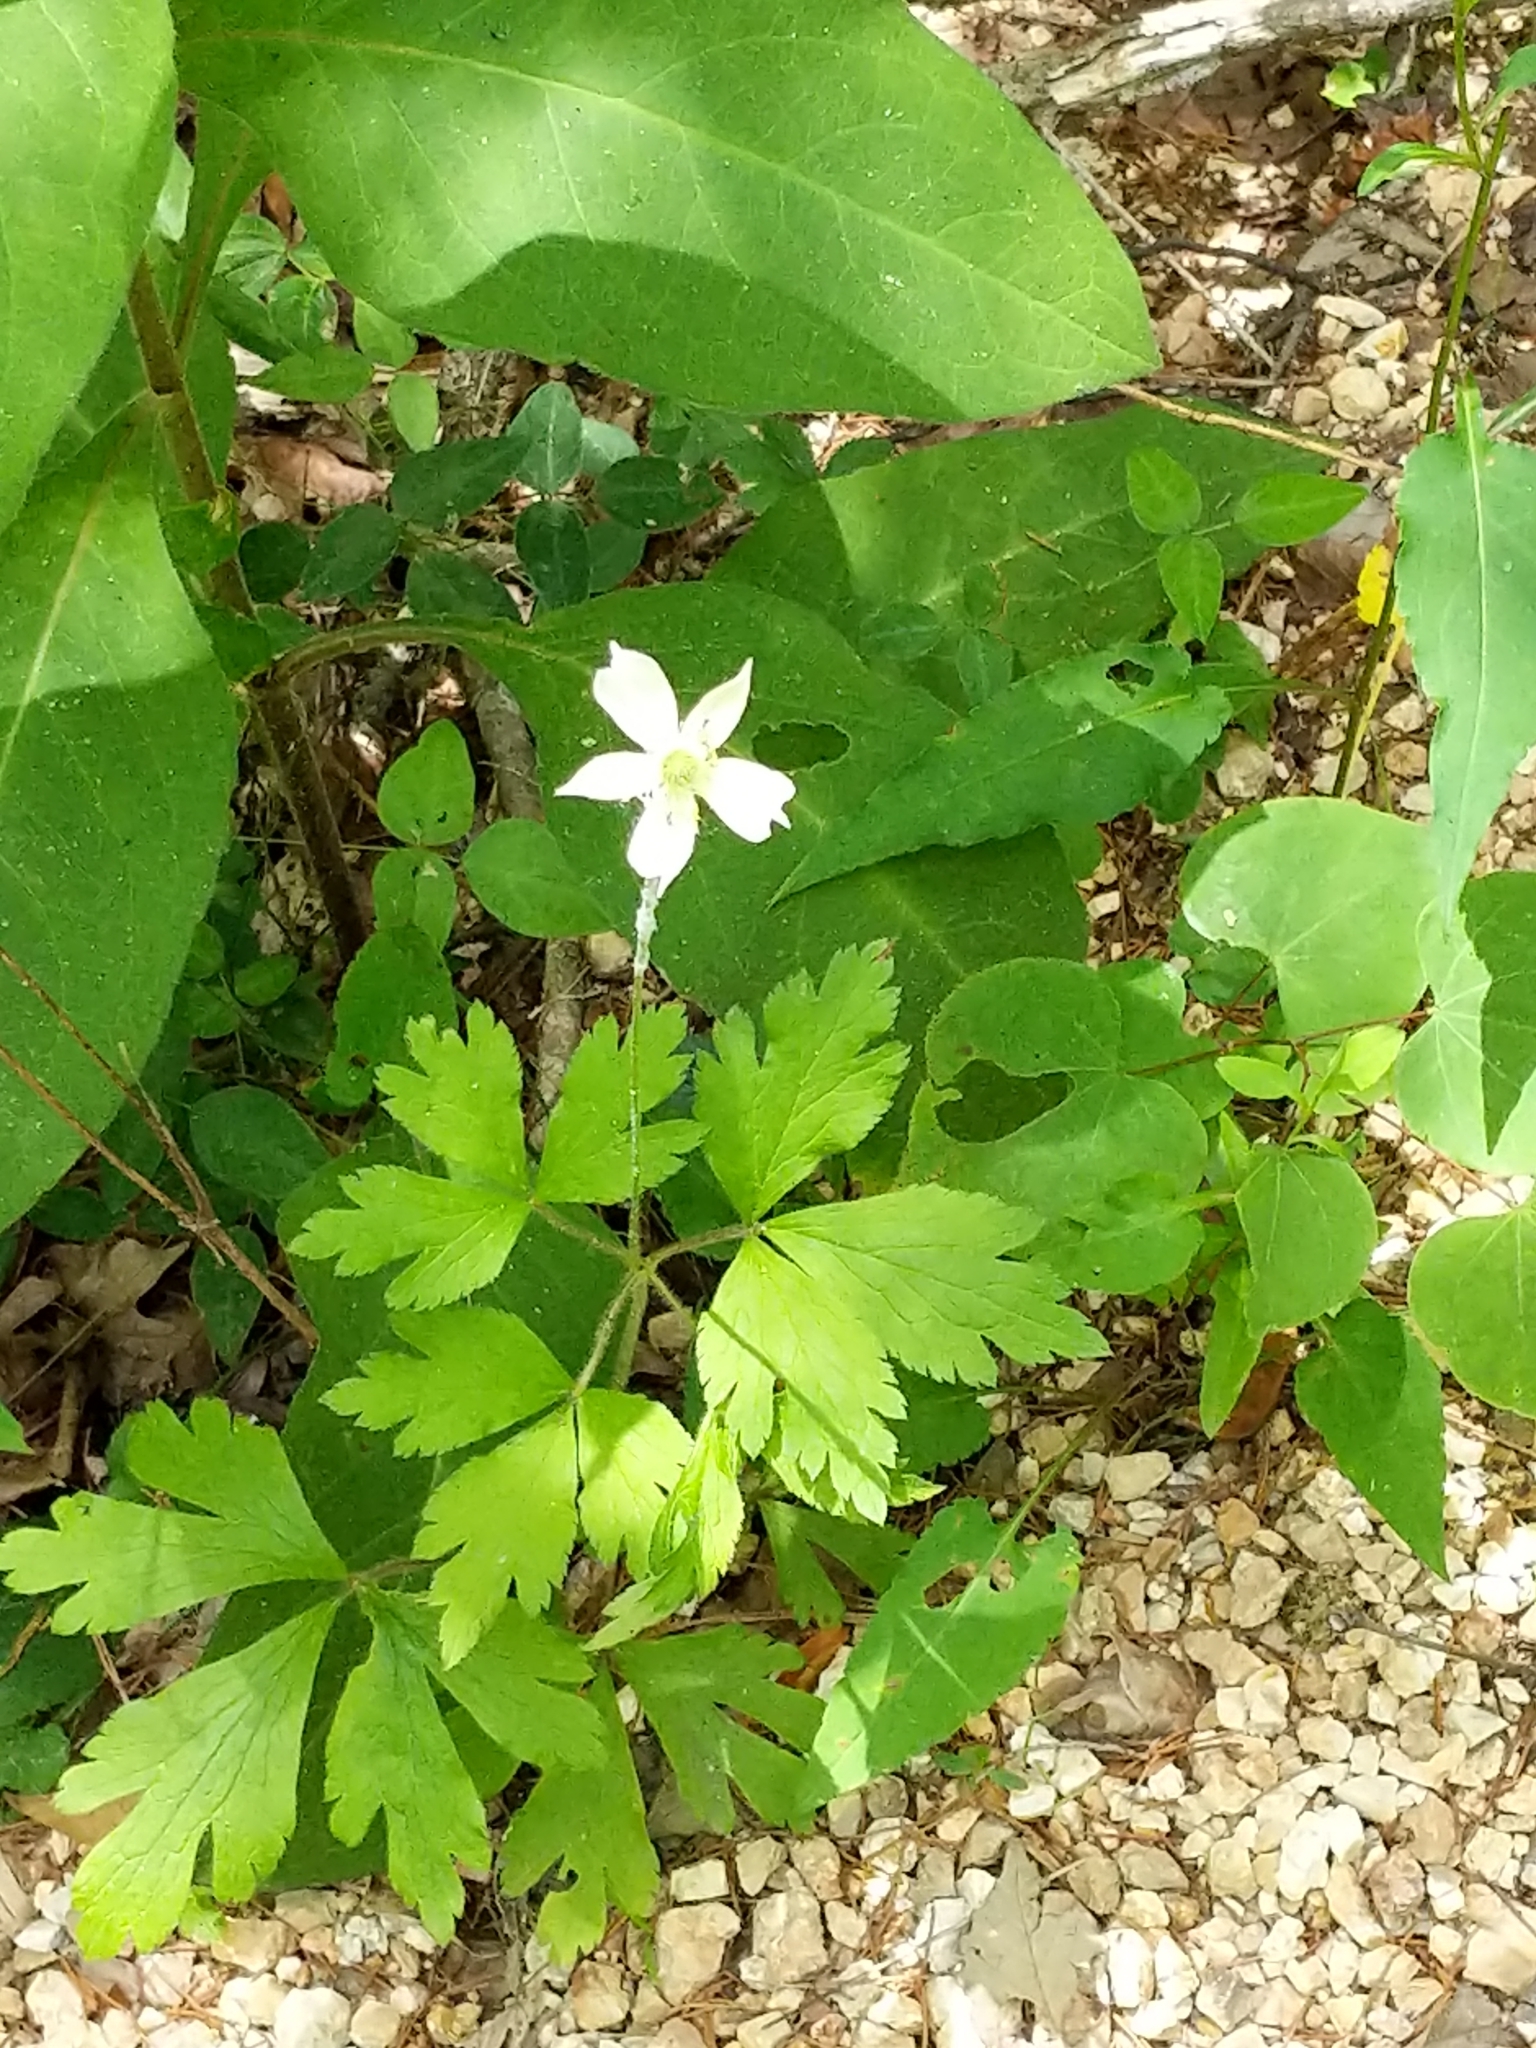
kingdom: Plantae
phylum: Tracheophyta
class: Magnoliopsida
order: Ranunculales
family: Ranunculaceae
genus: Anemone
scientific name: Anemone virginiana
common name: Tall anemone
